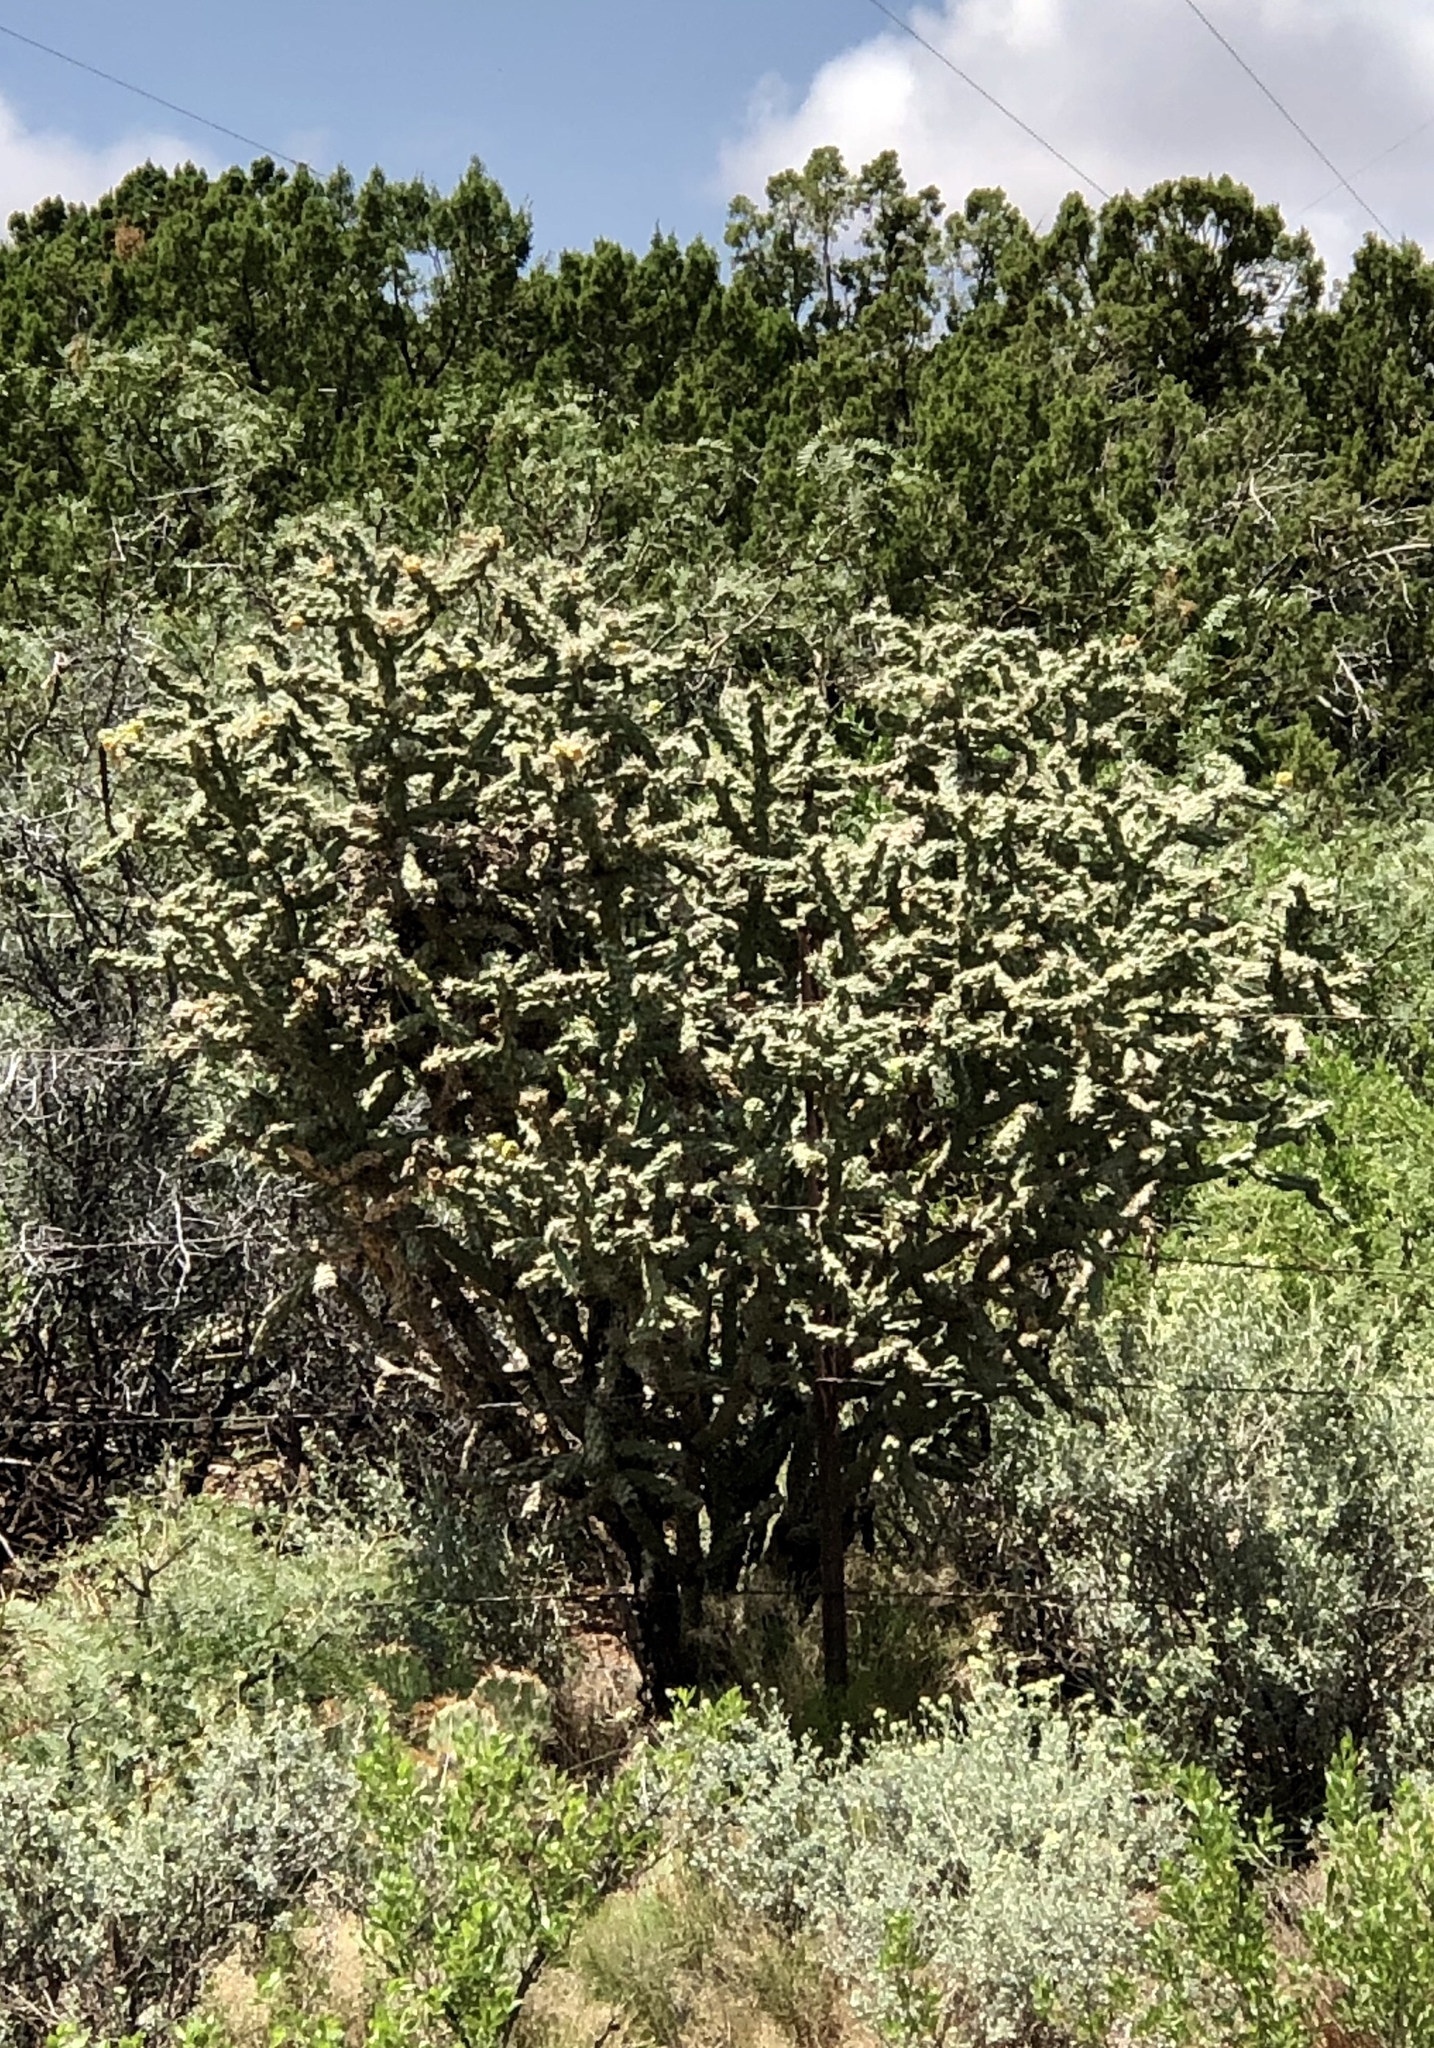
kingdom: Plantae
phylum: Tracheophyta
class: Magnoliopsida
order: Caryophyllales
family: Cactaceae
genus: Cylindropuntia
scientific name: Cylindropuntia imbricata
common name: Candelabrum cactus
